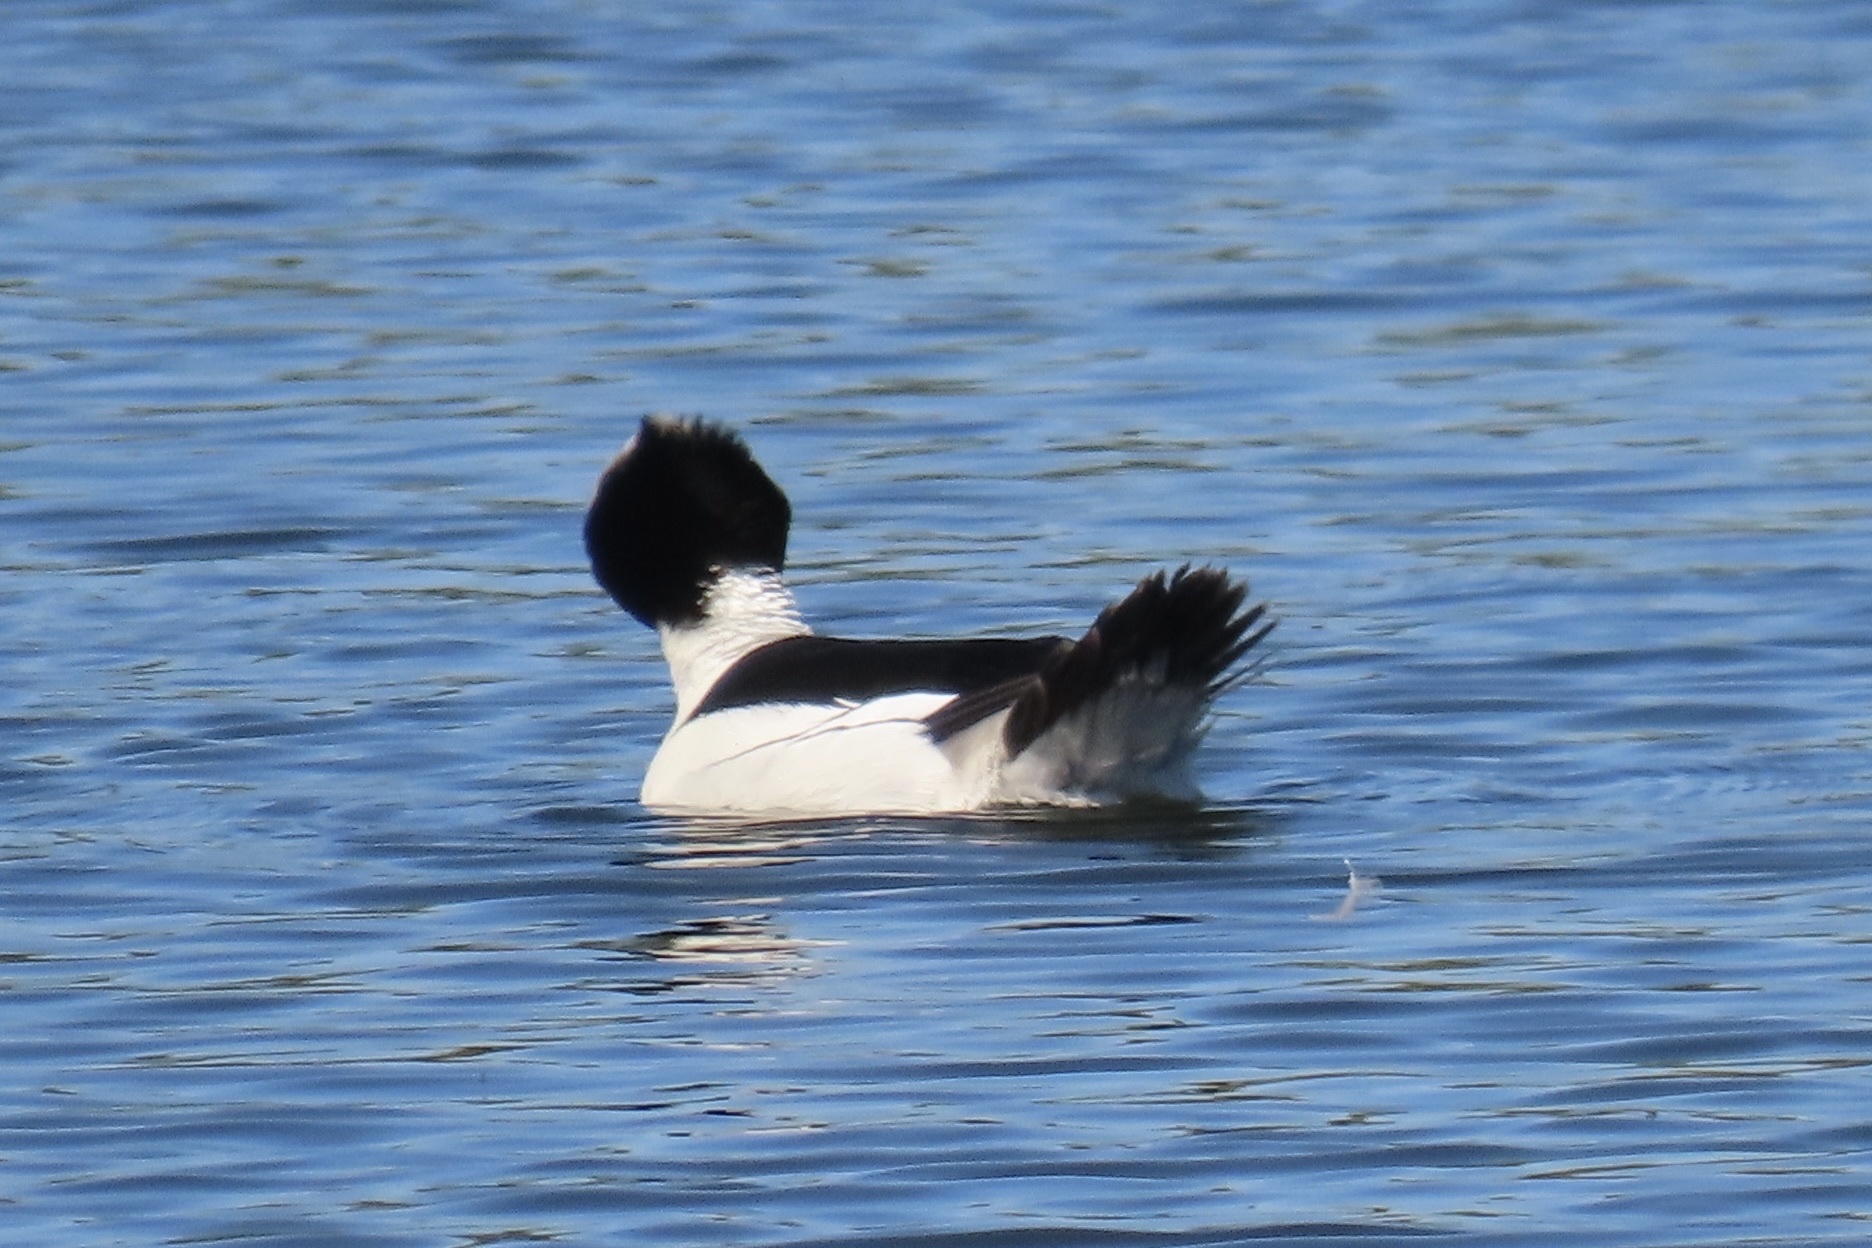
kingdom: Animalia
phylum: Chordata
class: Aves
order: Anseriformes
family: Anatidae
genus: Bucephala
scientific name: Bucephala albeola
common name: Bufflehead
